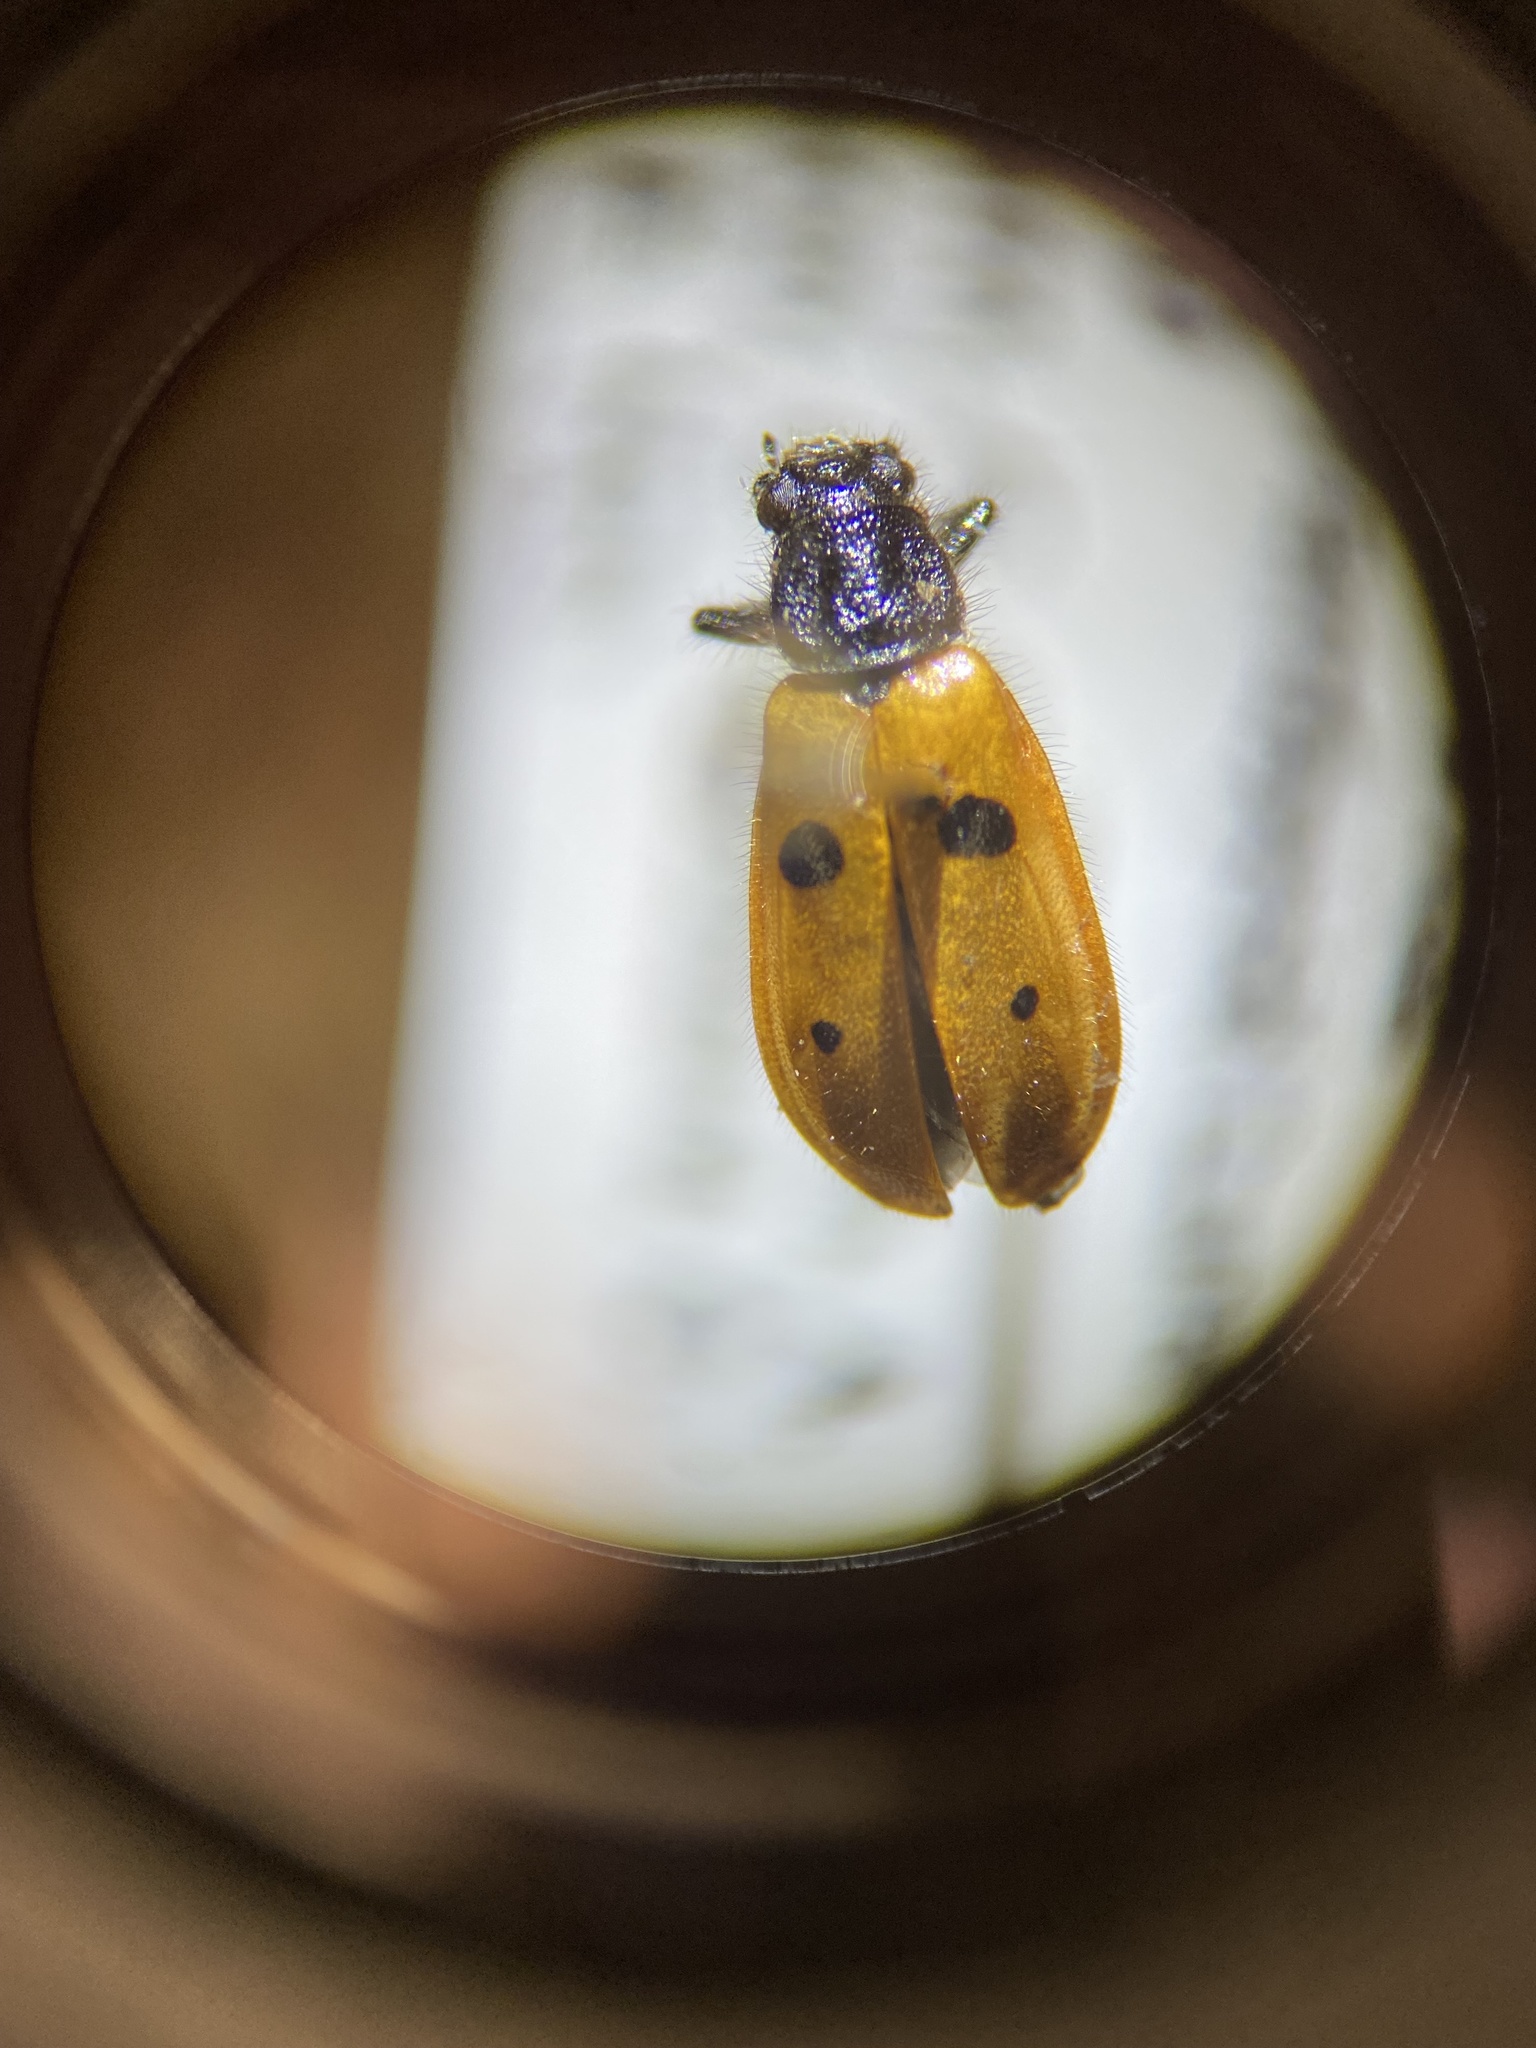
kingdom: Animalia
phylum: Arthropoda
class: Insecta
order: Coleoptera
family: Cleridae
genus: Pelonides
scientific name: Pelonides quadripunctatus
